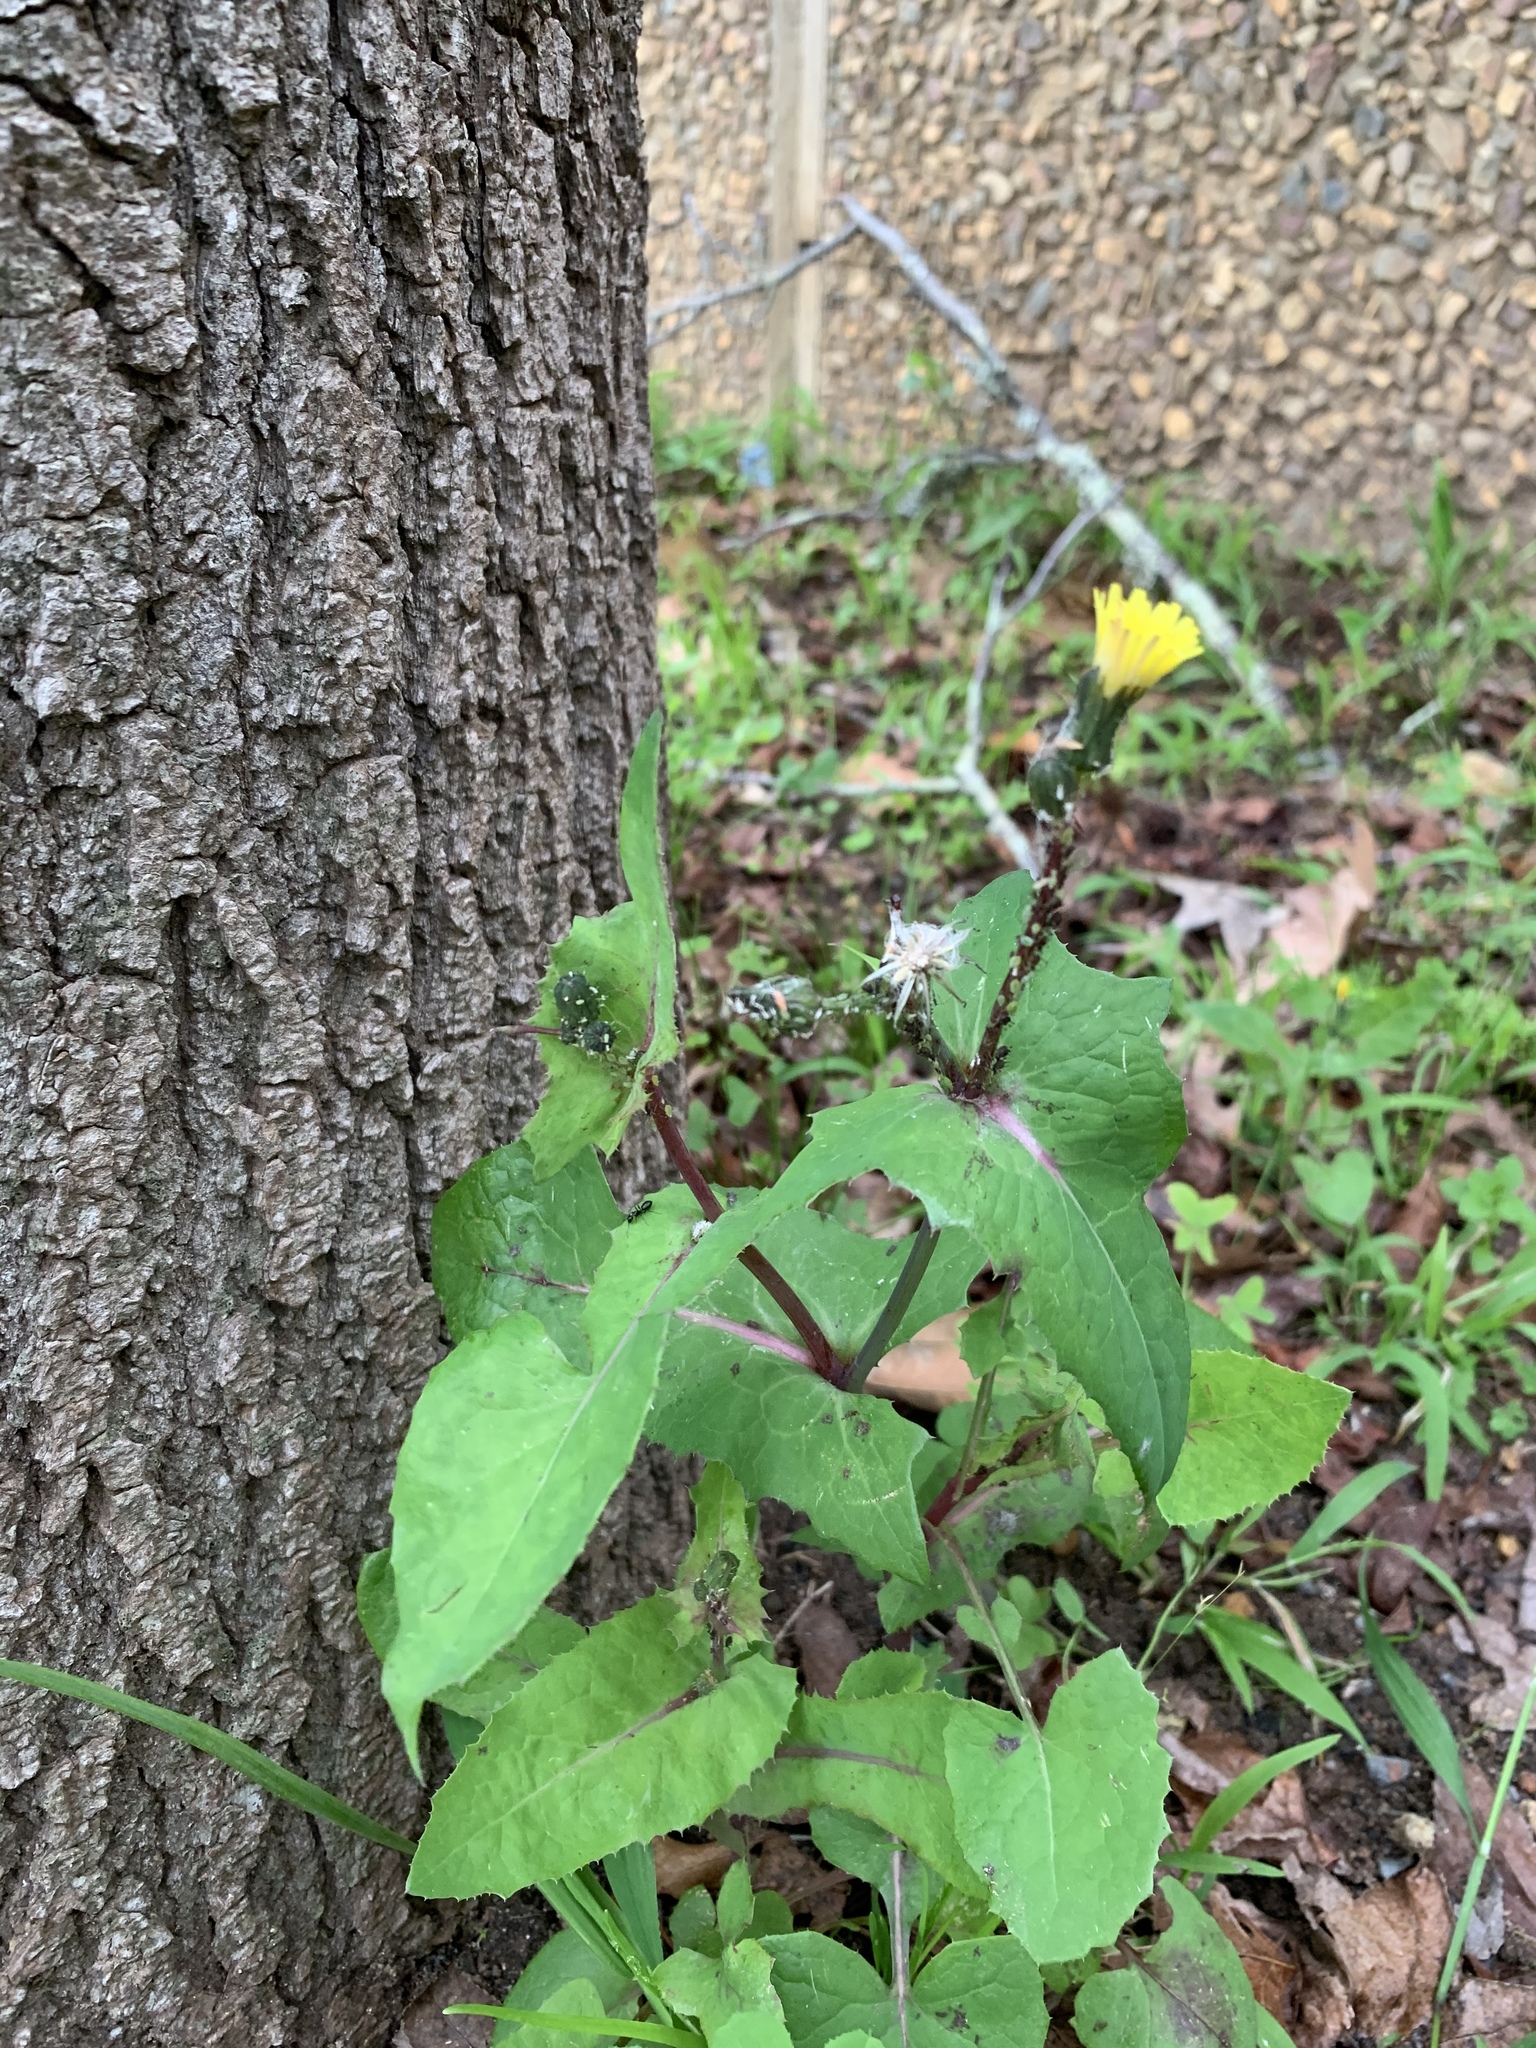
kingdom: Plantae
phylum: Tracheophyta
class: Magnoliopsida
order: Asterales
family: Asteraceae
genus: Sonchus
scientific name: Sonchus oleraceus
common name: Common sowthistle
